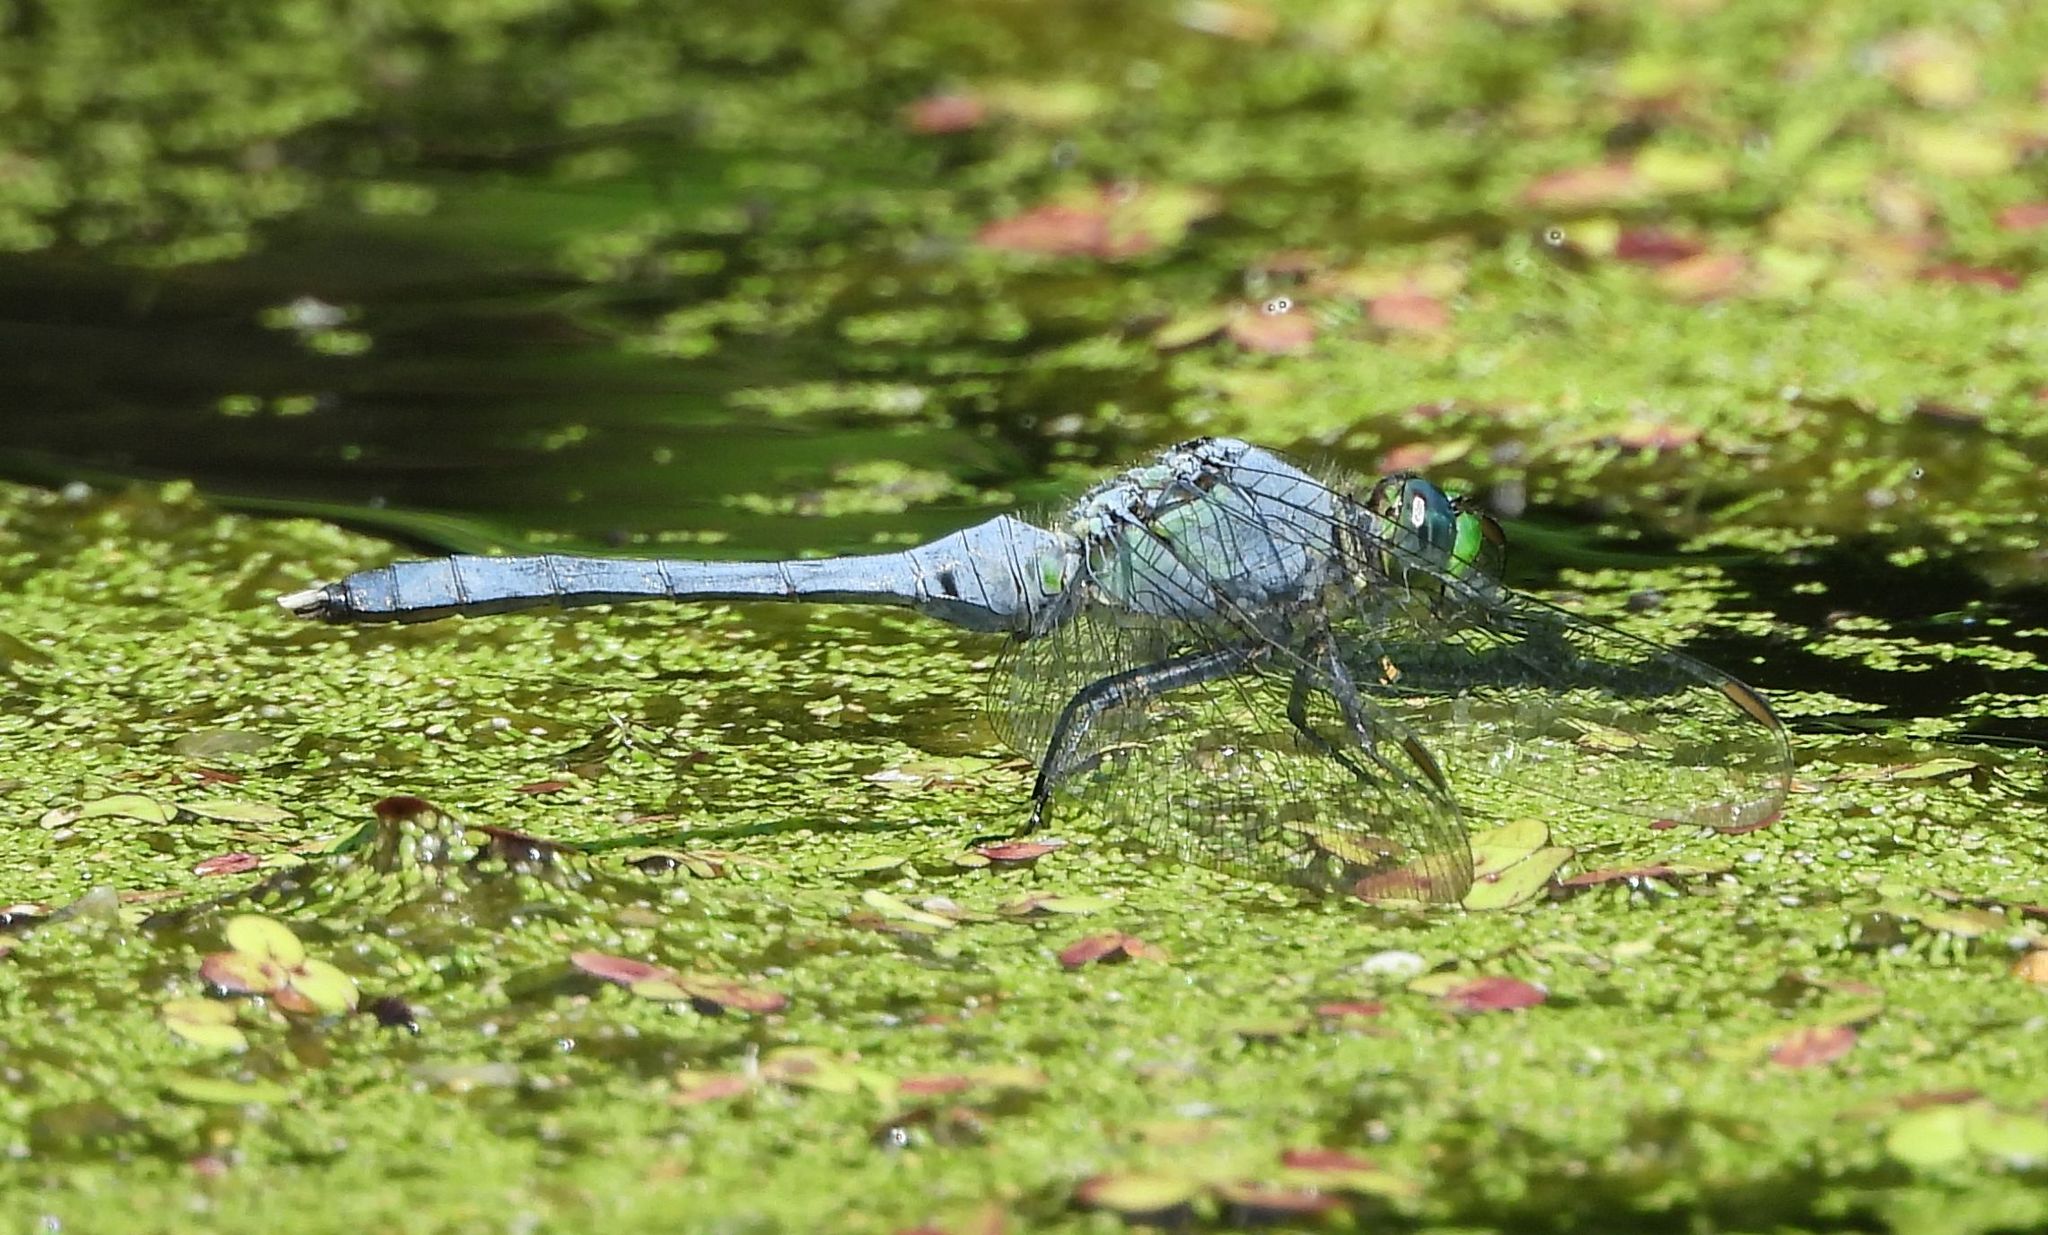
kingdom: Animalia
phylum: Arthropoda
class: Insecta
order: Odonata
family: Libellulidae
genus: Erythemis
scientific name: Erythemis simplicicollis
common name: Eastern pondhawk
